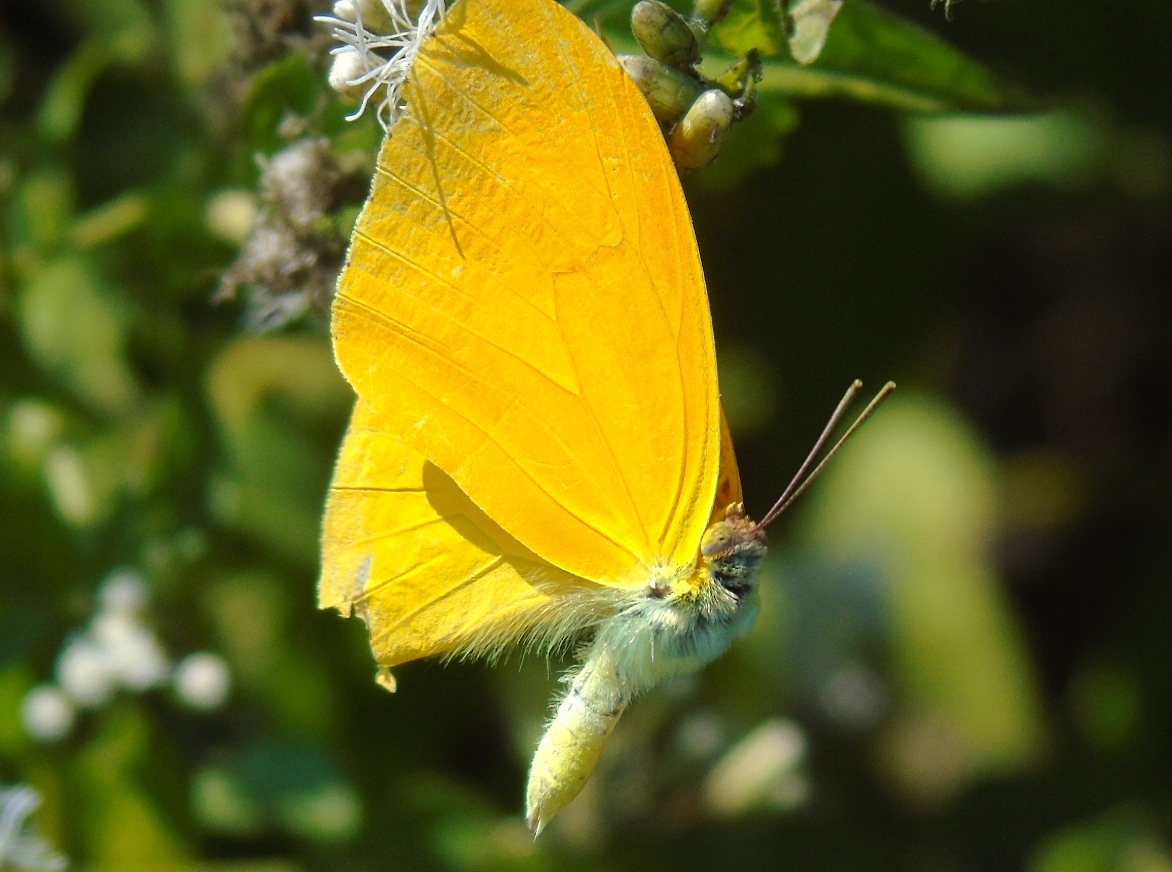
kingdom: Animalia
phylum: Arthropoda
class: Insecta
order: Lepidoptera
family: Pieridae
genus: Phoebis
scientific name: Phoebis agarithe
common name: Large orange sulphur
